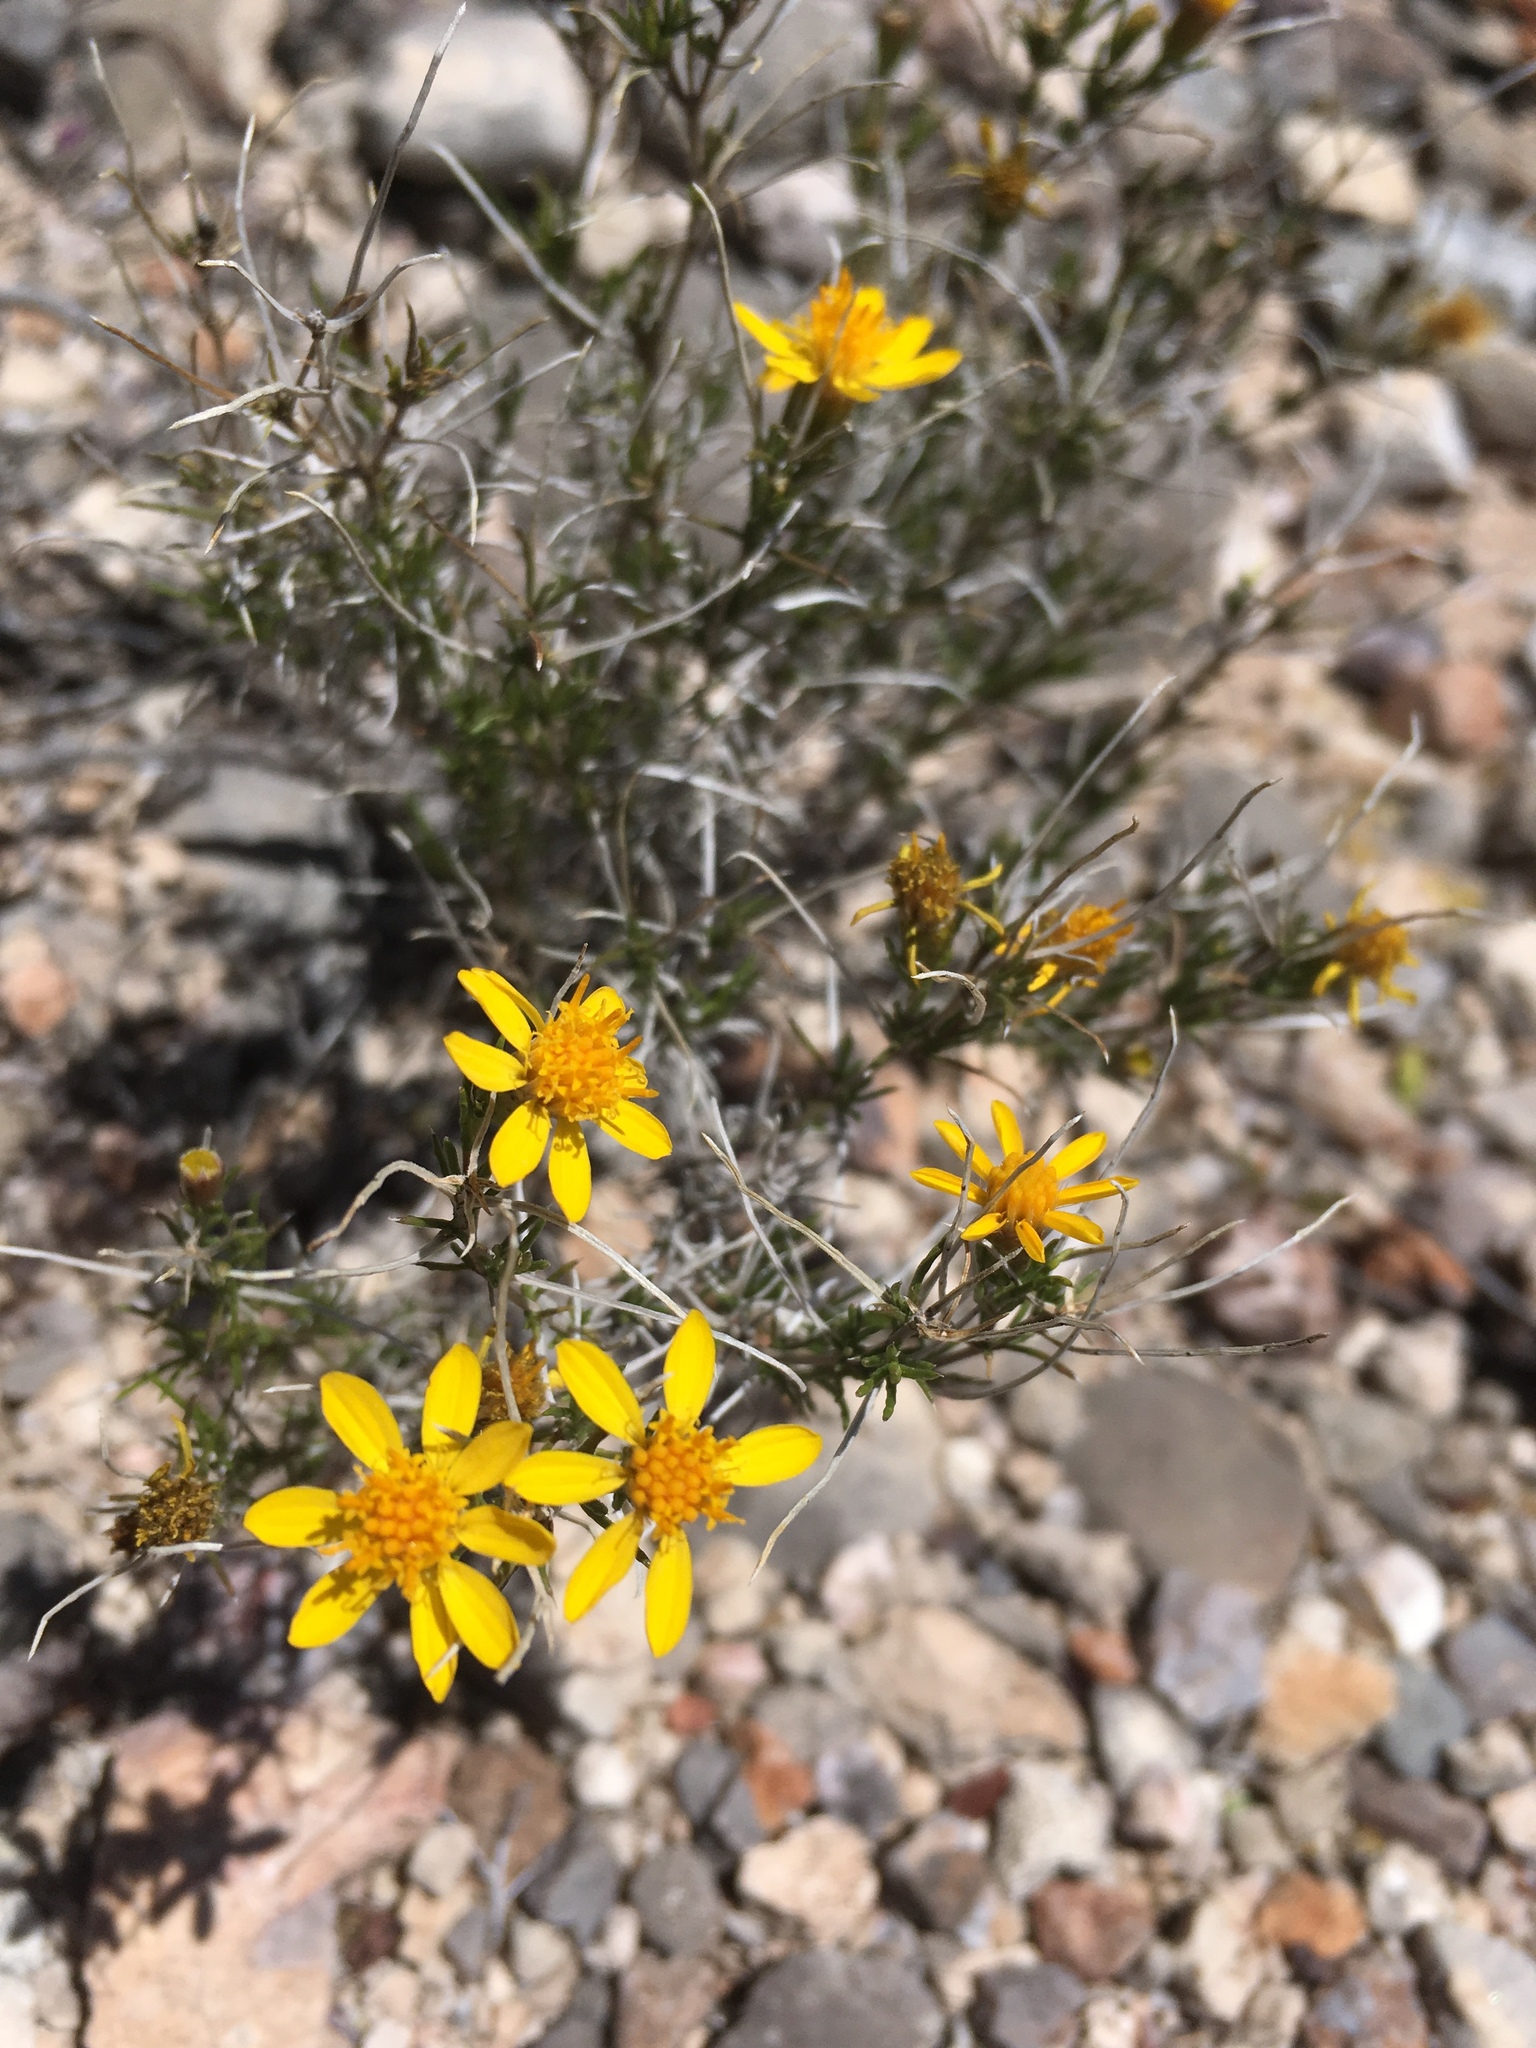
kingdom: Plantae
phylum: Tracheophyta
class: Magnoliopsida
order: Asterales
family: Asteraceae
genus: Thymophylla
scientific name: Thymophylla acerosa
